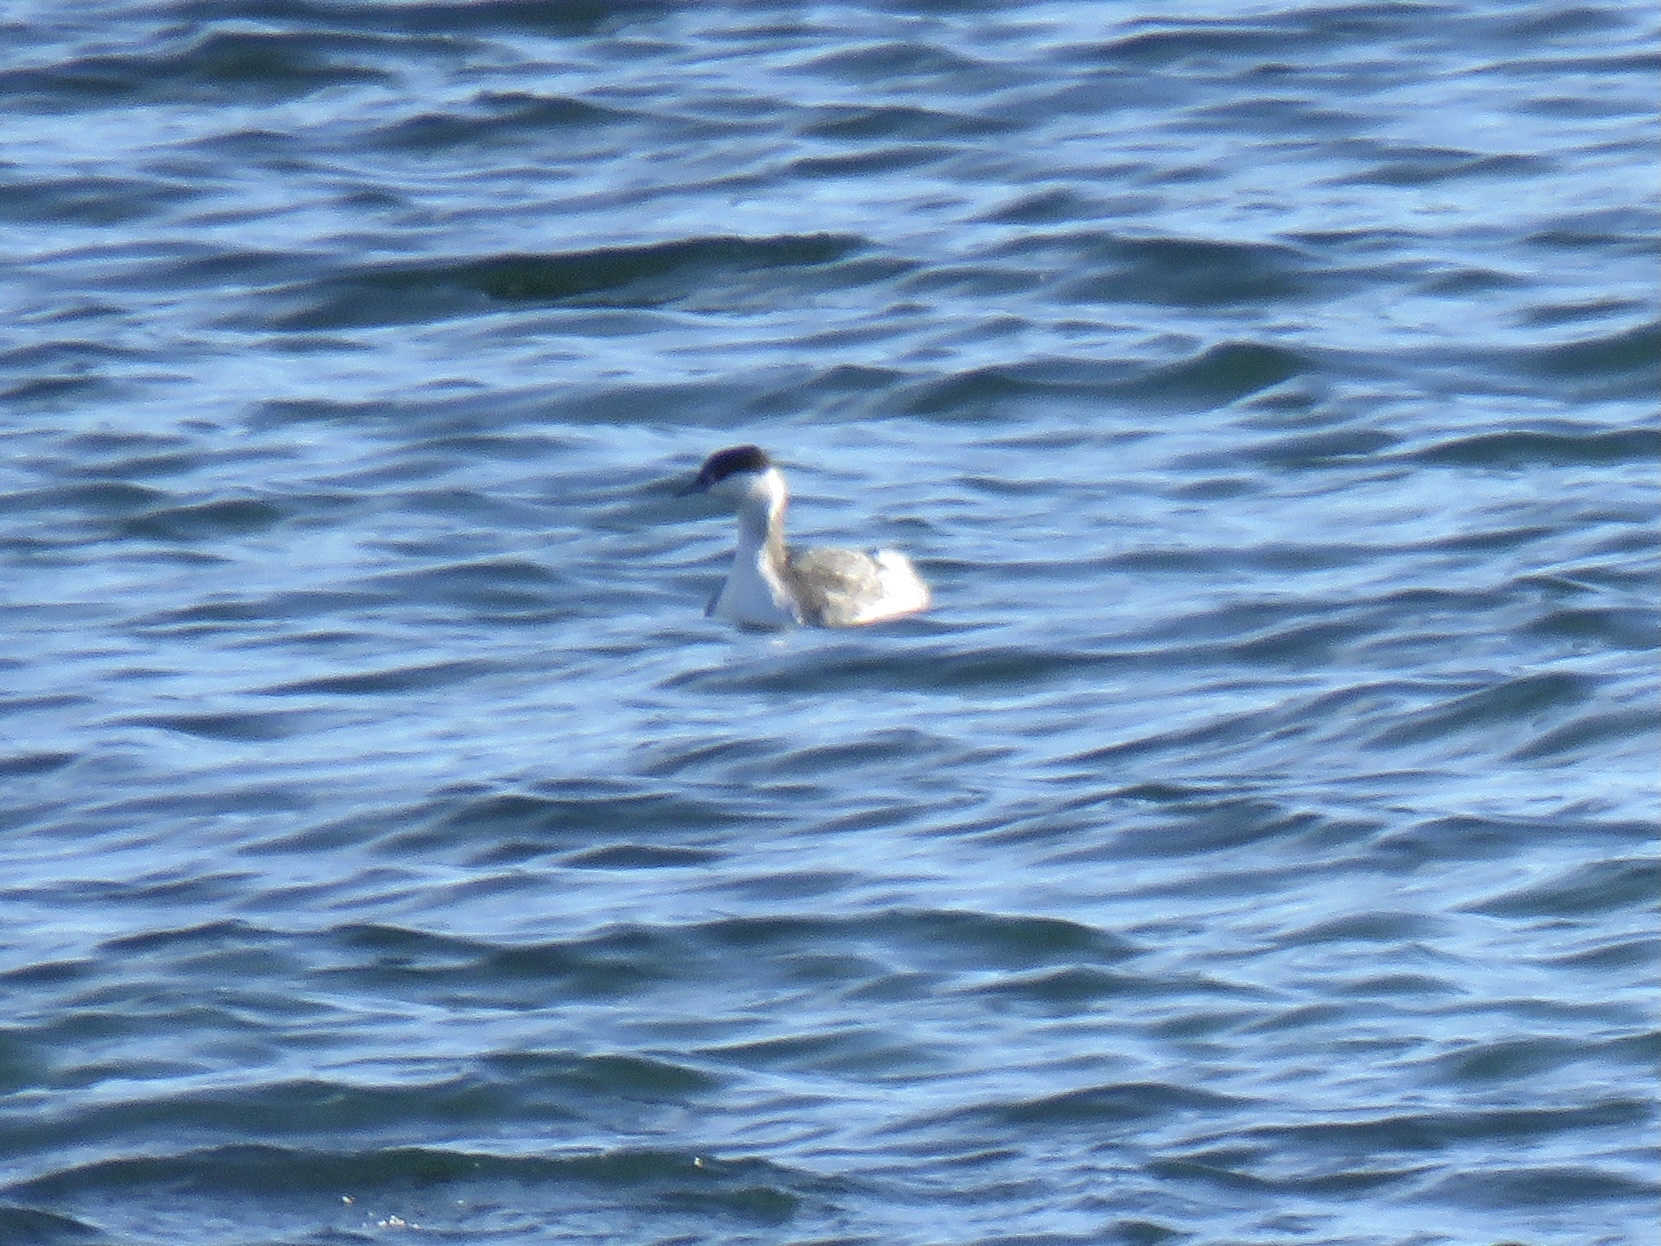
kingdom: Animalia
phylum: Chordata
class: Aves
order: Podicipediformes
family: Podicipedidae
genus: Podiceps
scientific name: Podiceps auritus
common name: Horned grebe
